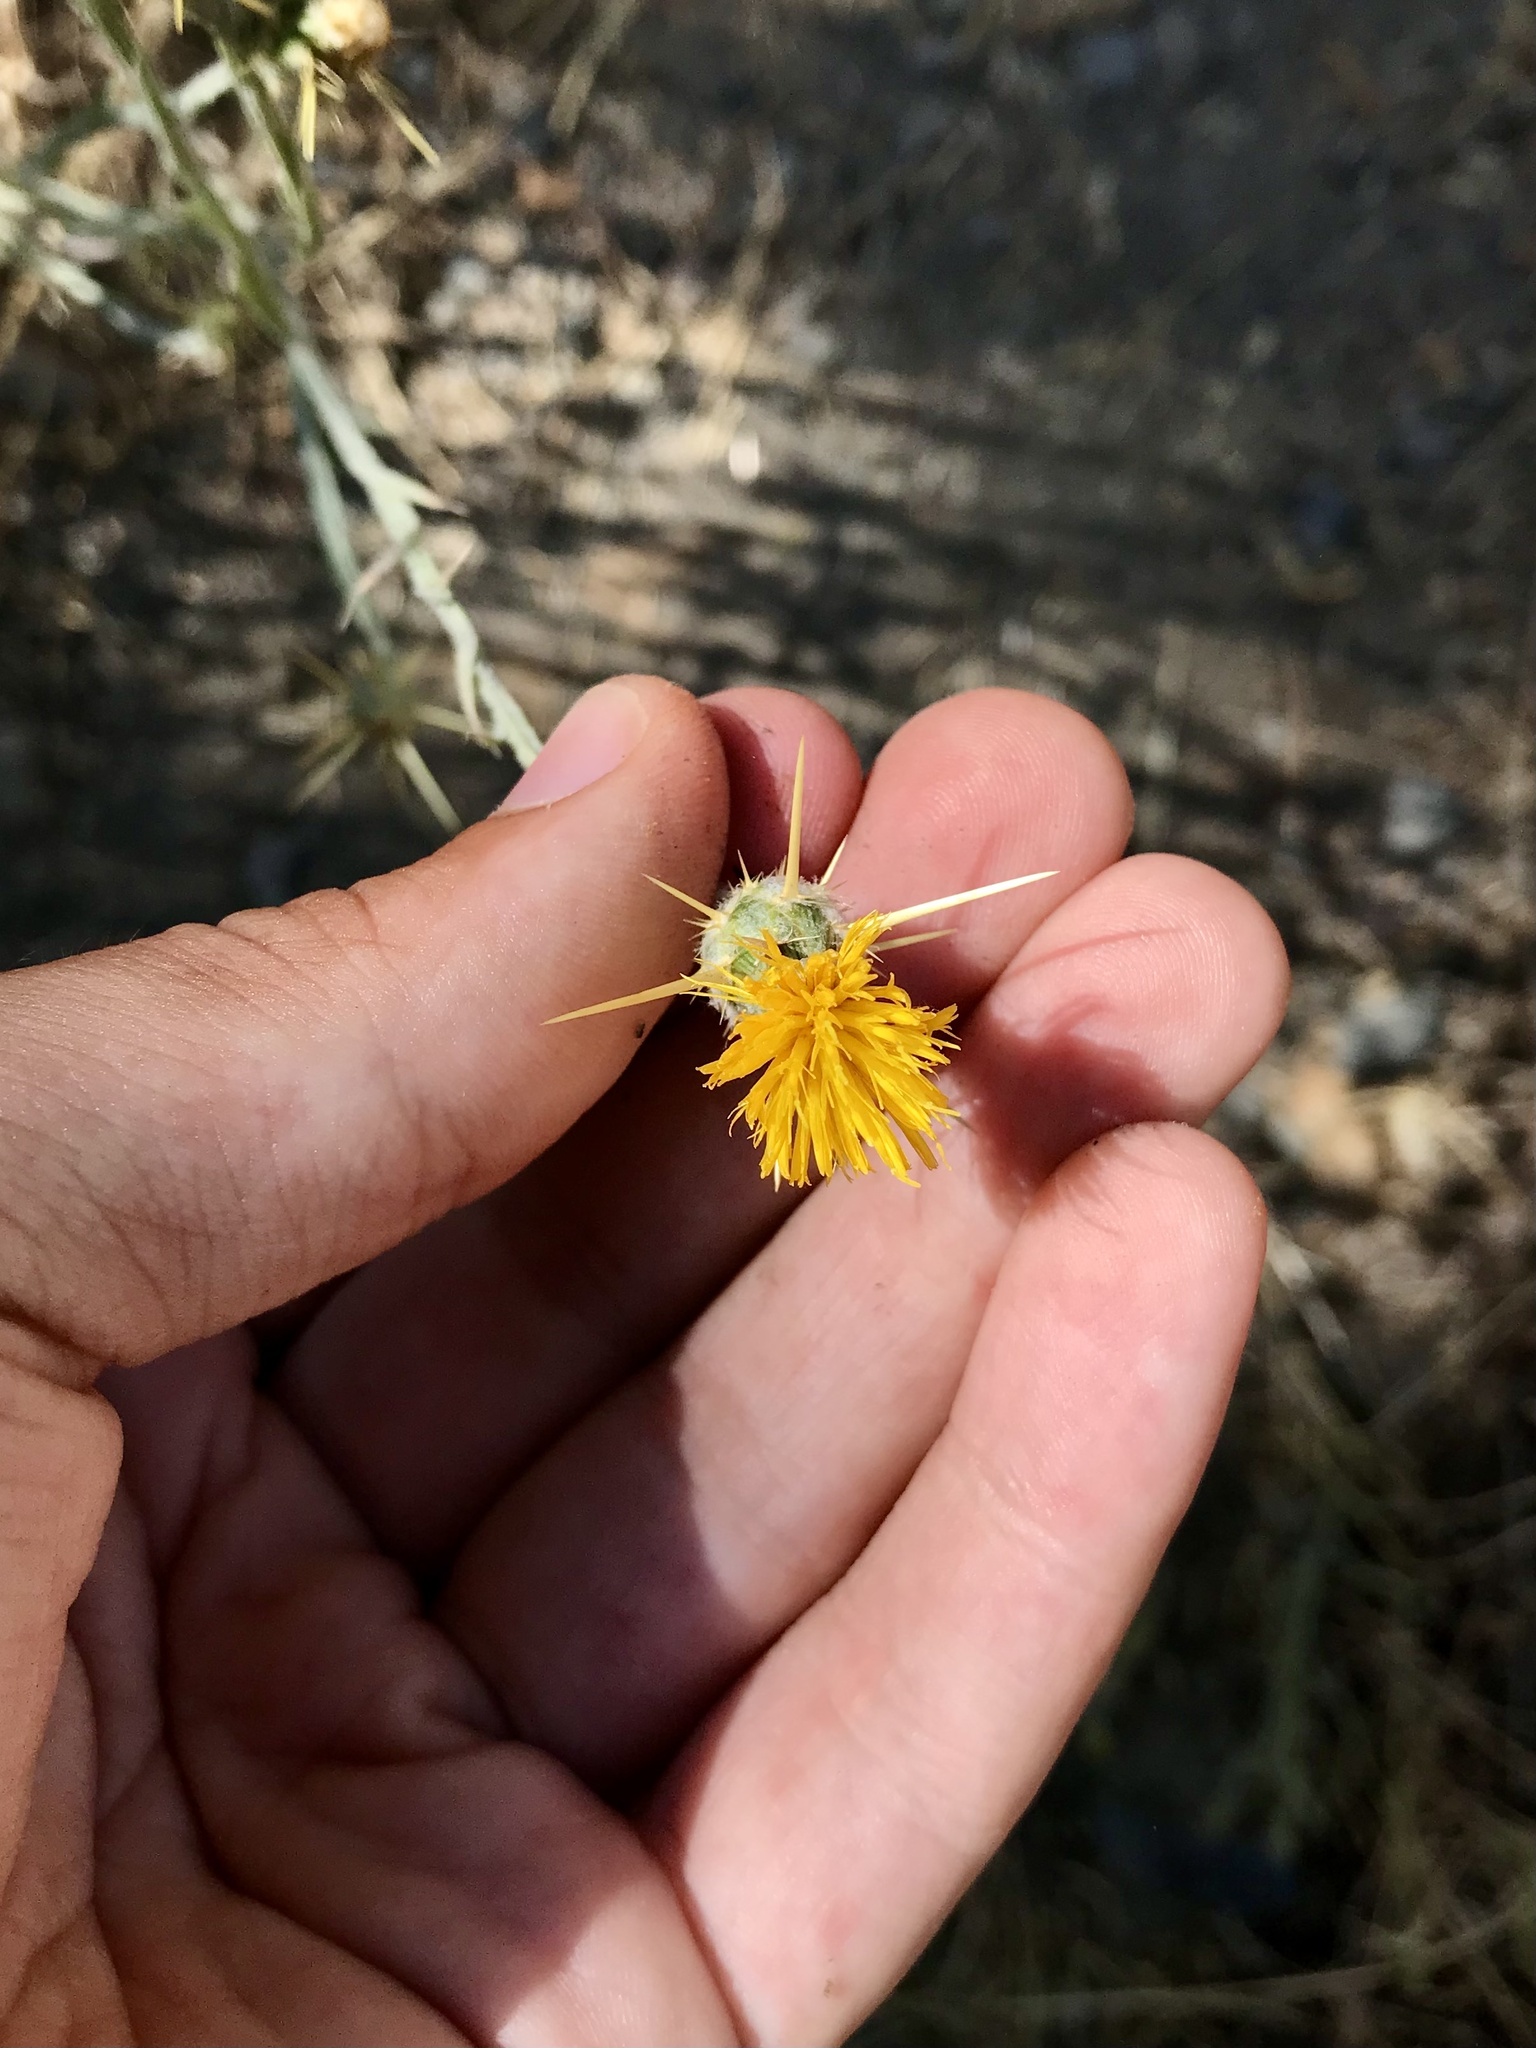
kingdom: Plantae
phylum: Tracheophyta
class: Magnoliopsida
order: Asterales
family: Asteraceae
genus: Centaurea
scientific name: Centaurea solstitialis
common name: Yellow star-thistle
